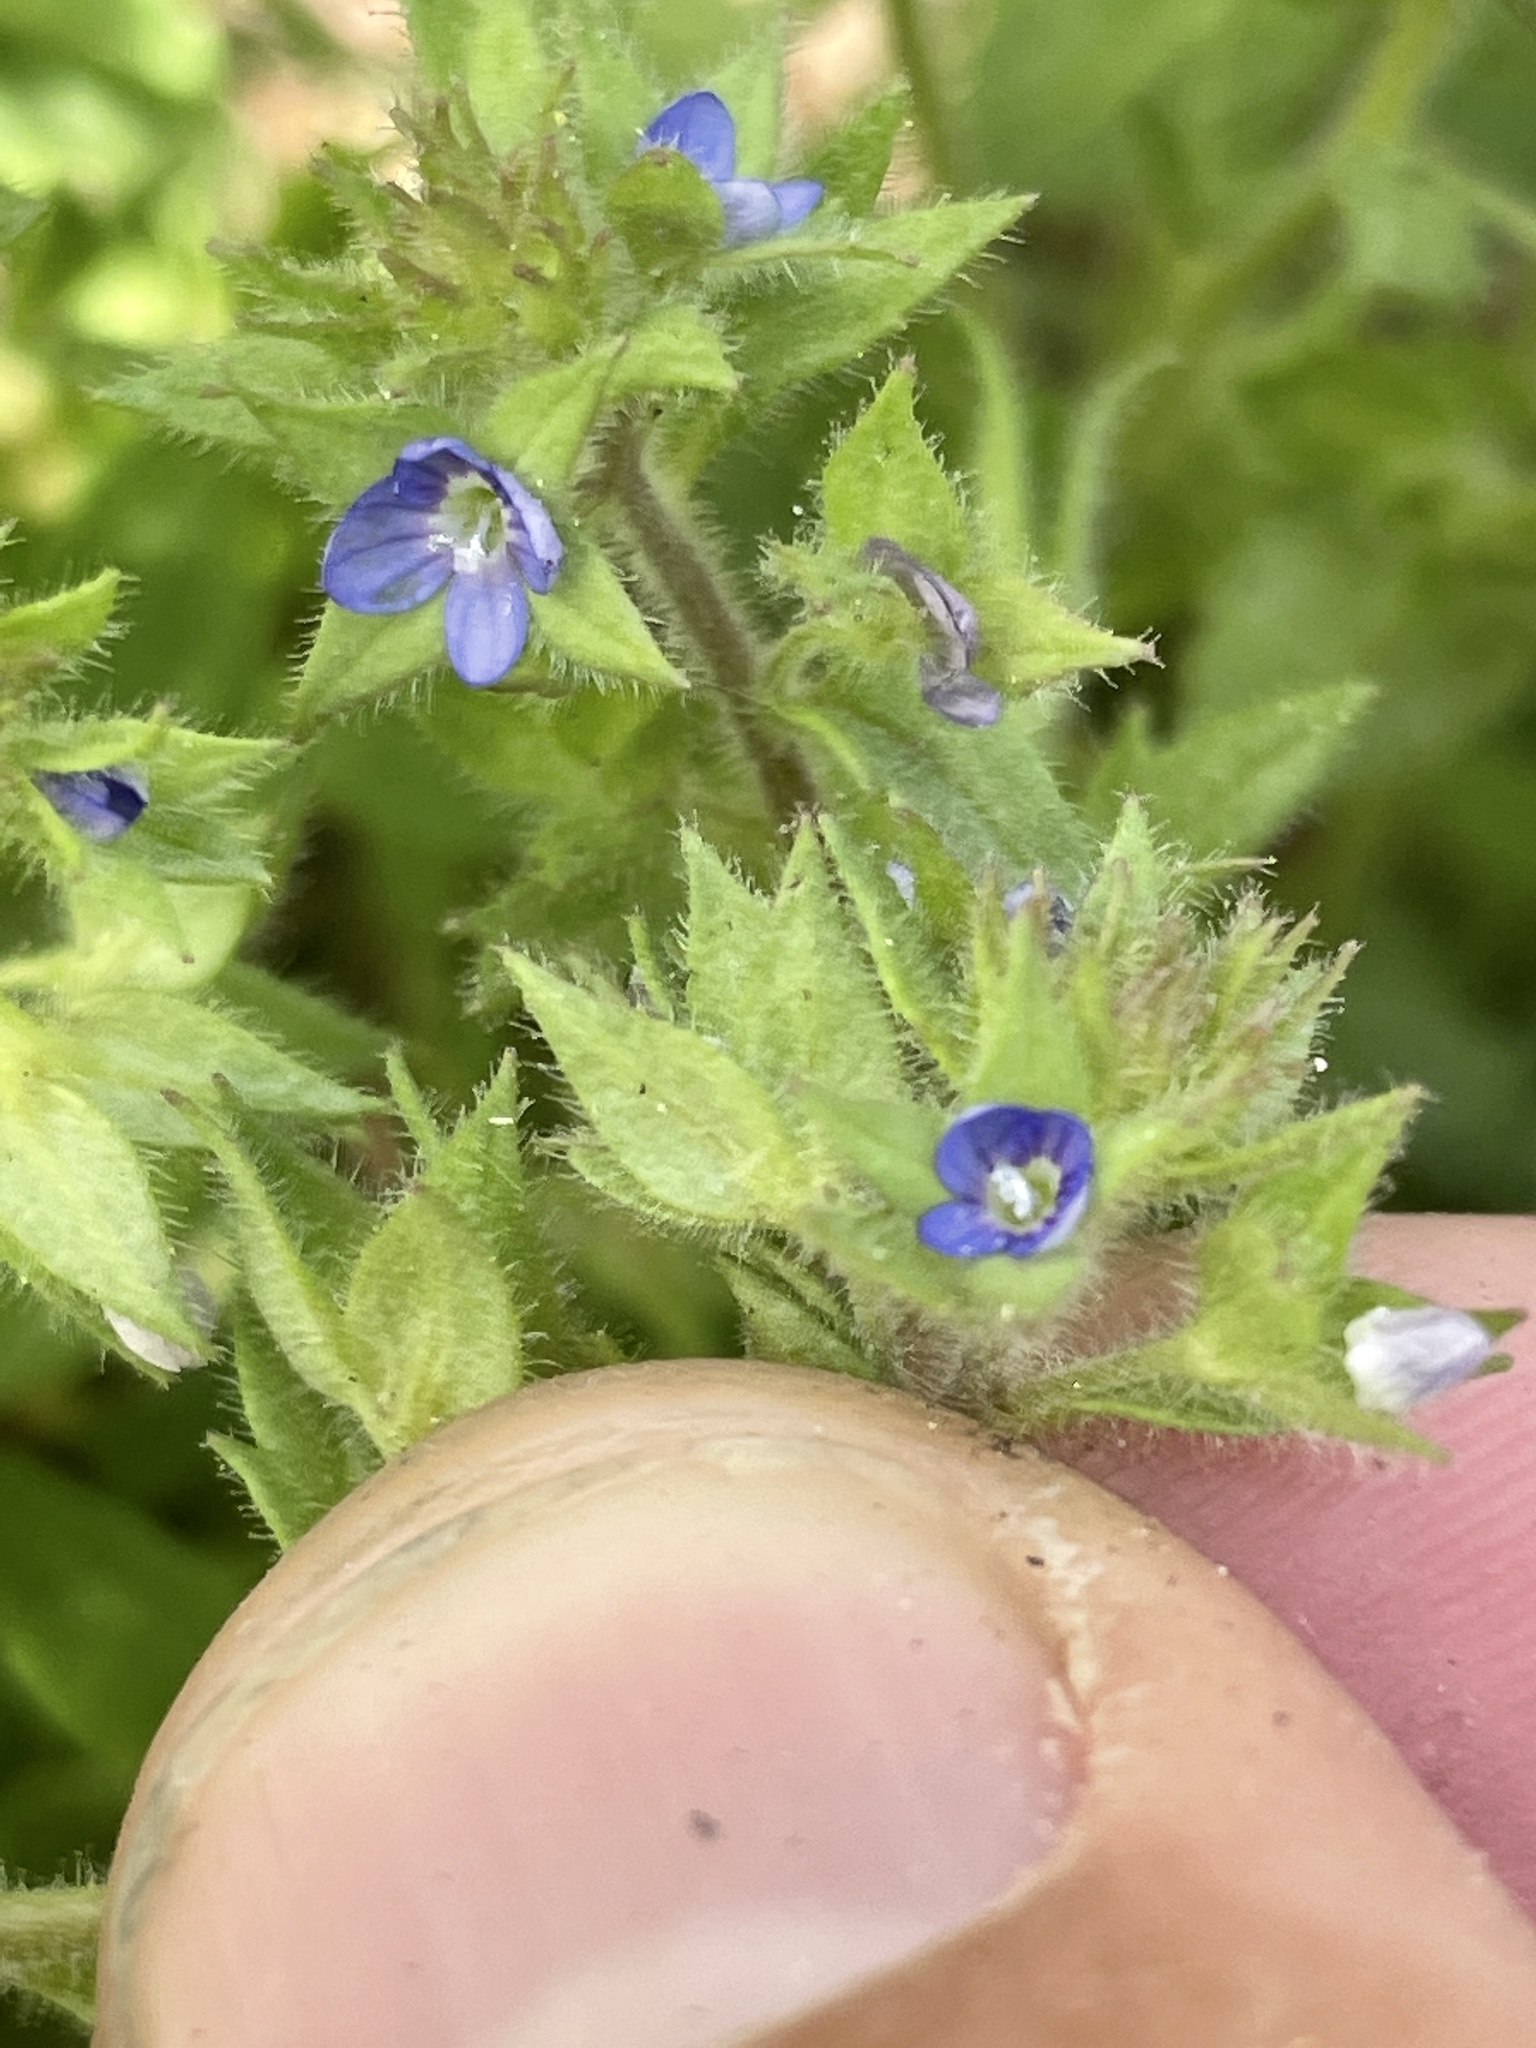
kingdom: Plantae
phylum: Tracheophyta
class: Magnoliopsida
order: Lamiales
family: Plantaginaceae
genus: Veronica
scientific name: Veronica biloba
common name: Twolobe speedwell
